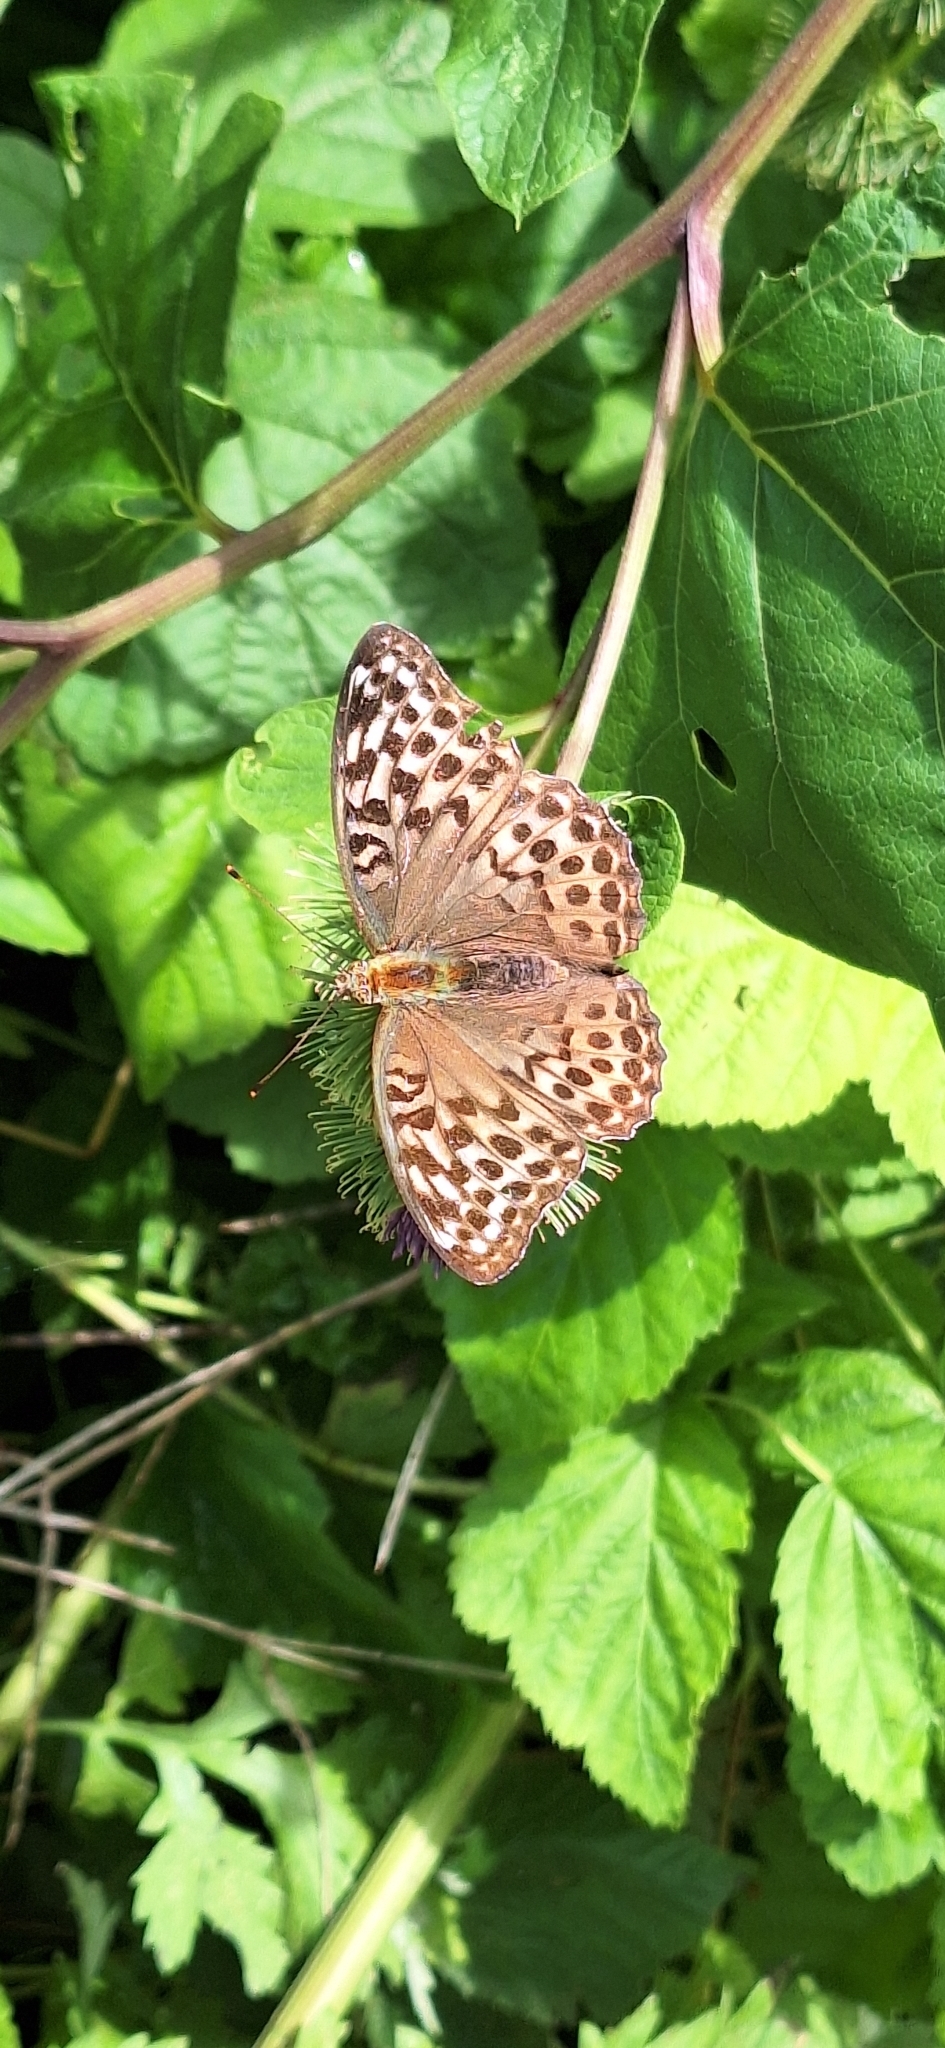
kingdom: Animalia
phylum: Arthropoda
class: Insecta
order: Lepidoptera
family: Nymphalidae
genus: Argynnis
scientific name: Argynnis paphia
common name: Silver-washed fritillary
